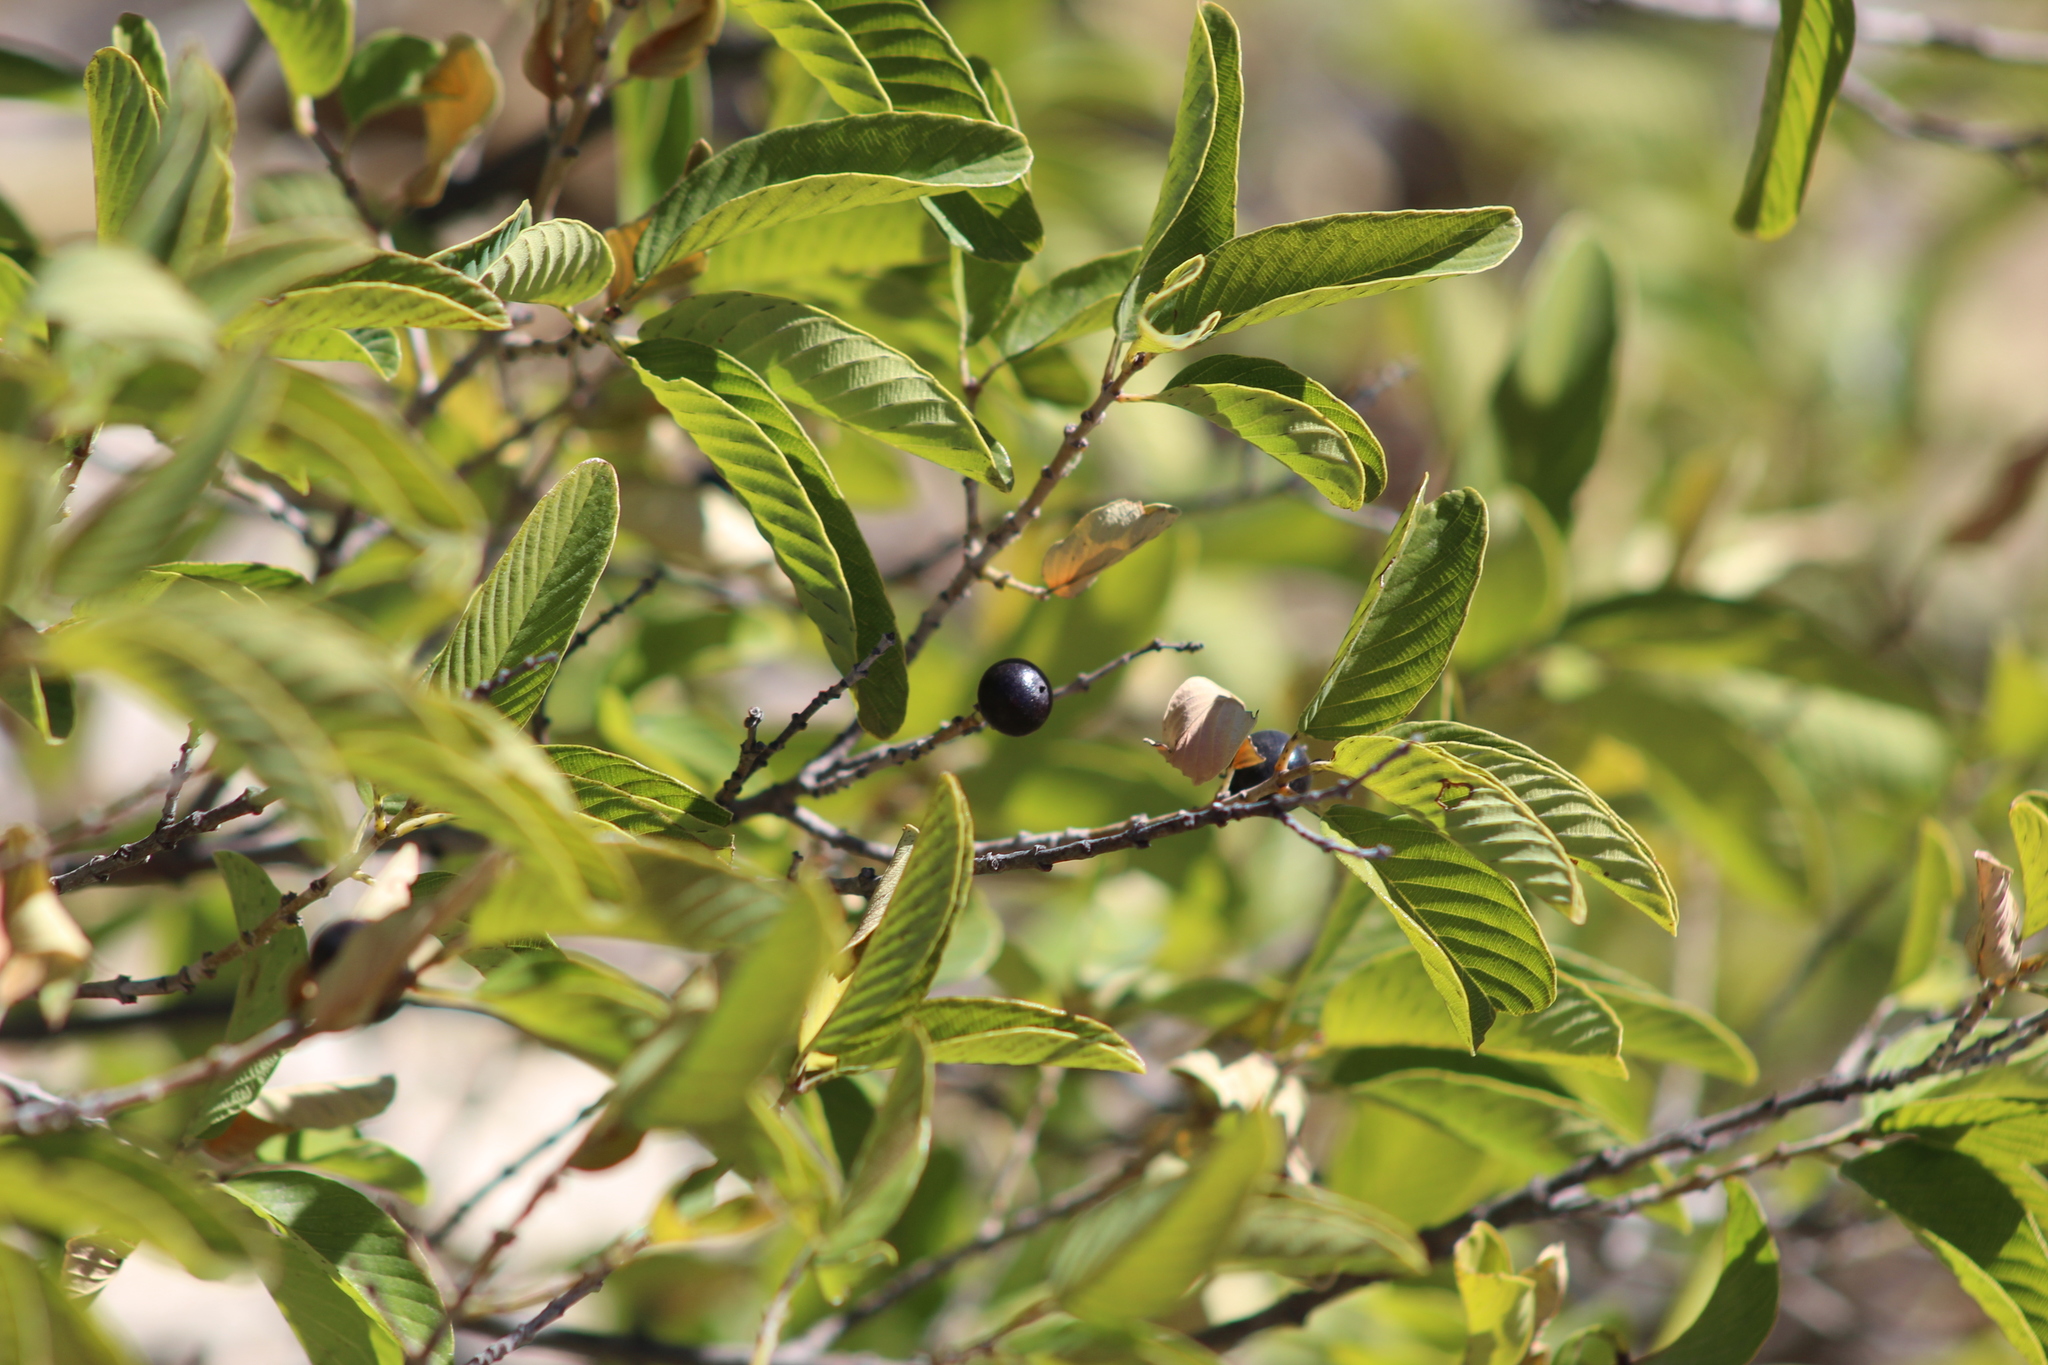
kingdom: Plantae
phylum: Tracheophyta
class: Magnoliopsida
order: Rosales
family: Rhamnaceae
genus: Karwinskia
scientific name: Karwinskia humboldtiana
